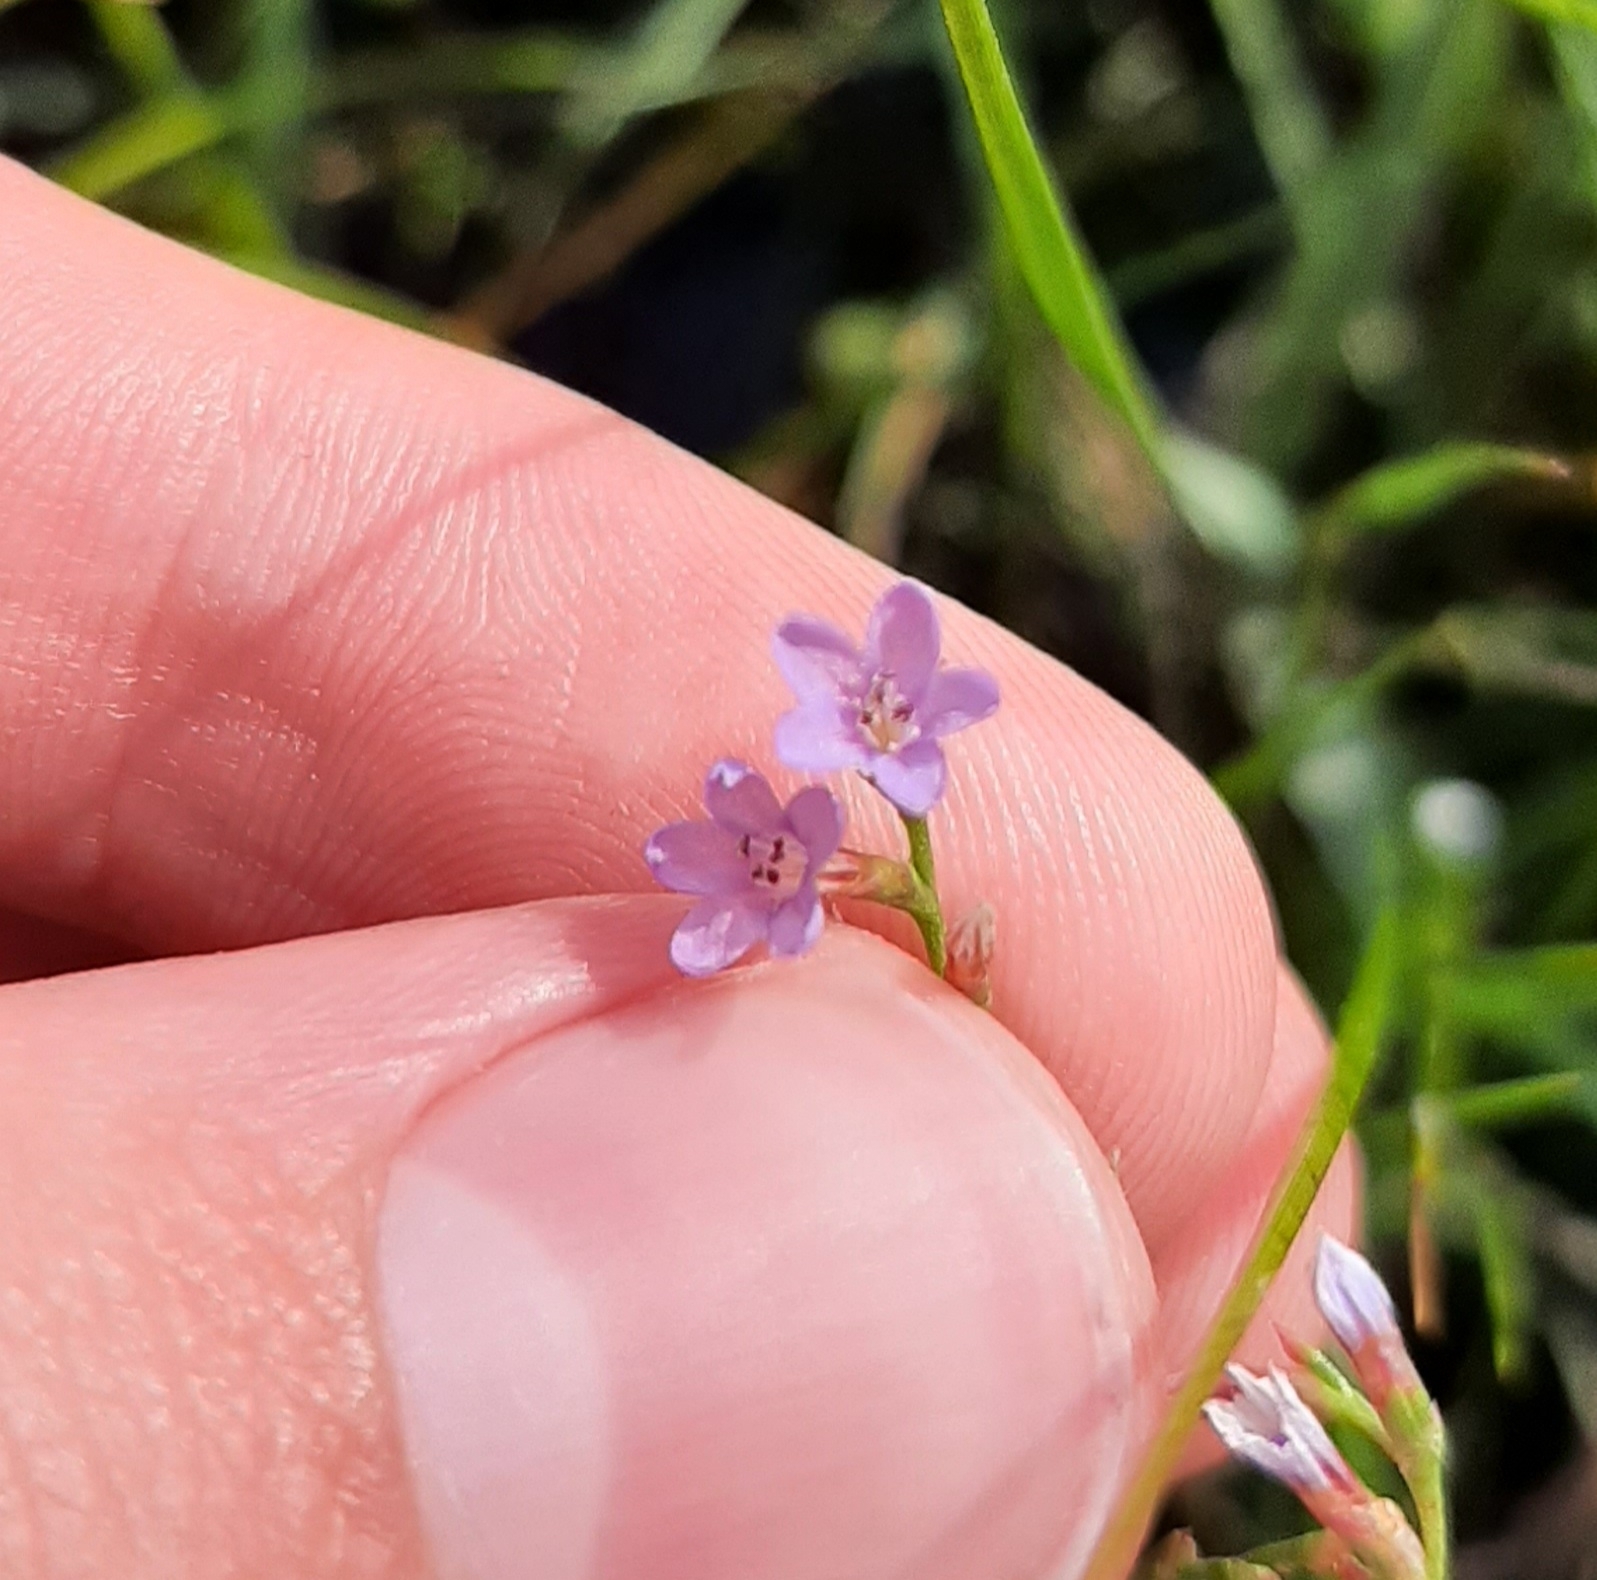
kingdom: Plantae
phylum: Tracheophyta
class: Magnoliopsida
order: Caryophyllales
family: Plumbaginaceae
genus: Limonium
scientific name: Limonium carolinianum
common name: Carolina sea lavender
